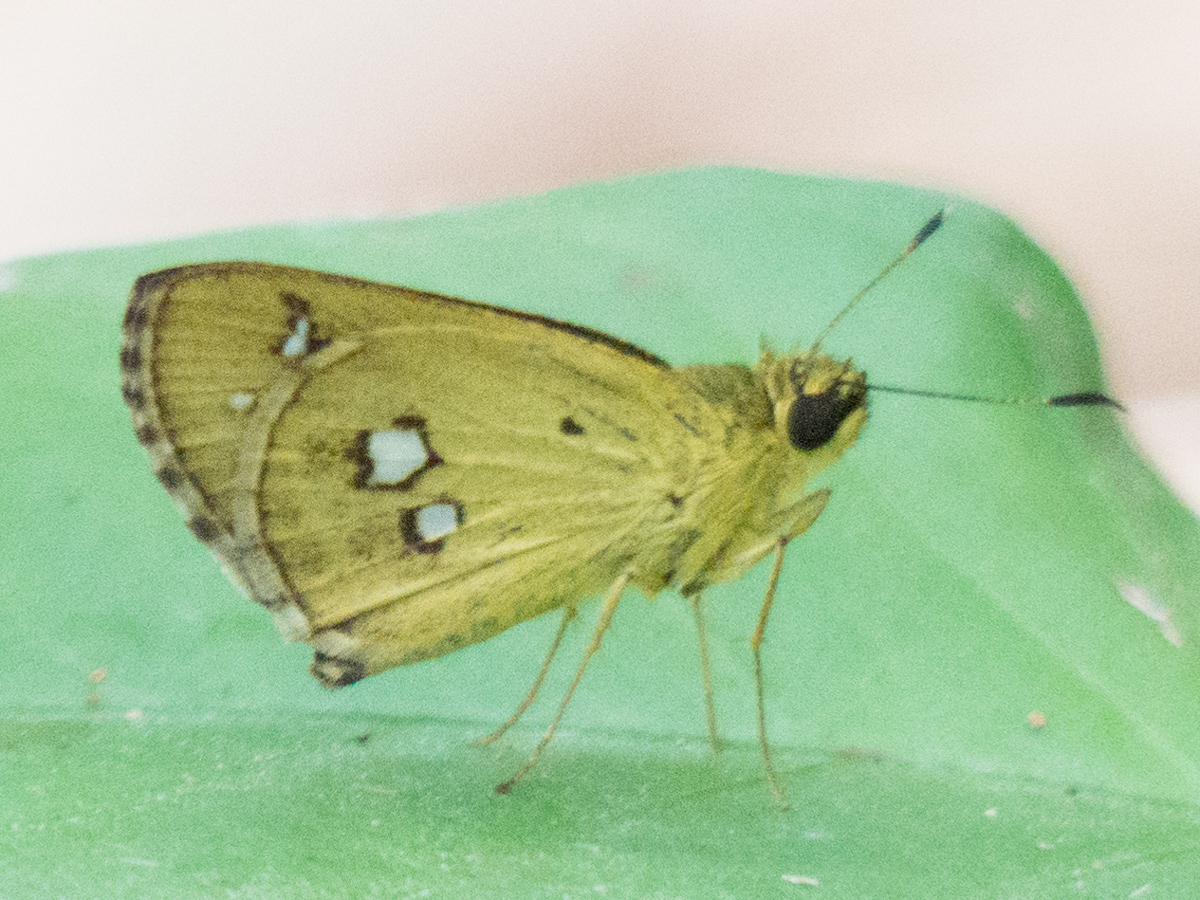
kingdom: Animalia
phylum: Arthropoda
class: Insecta
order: Lepidoptera
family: Hesperiidae
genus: Scobura
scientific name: Scobura isota
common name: Swinhoe's forest bob
